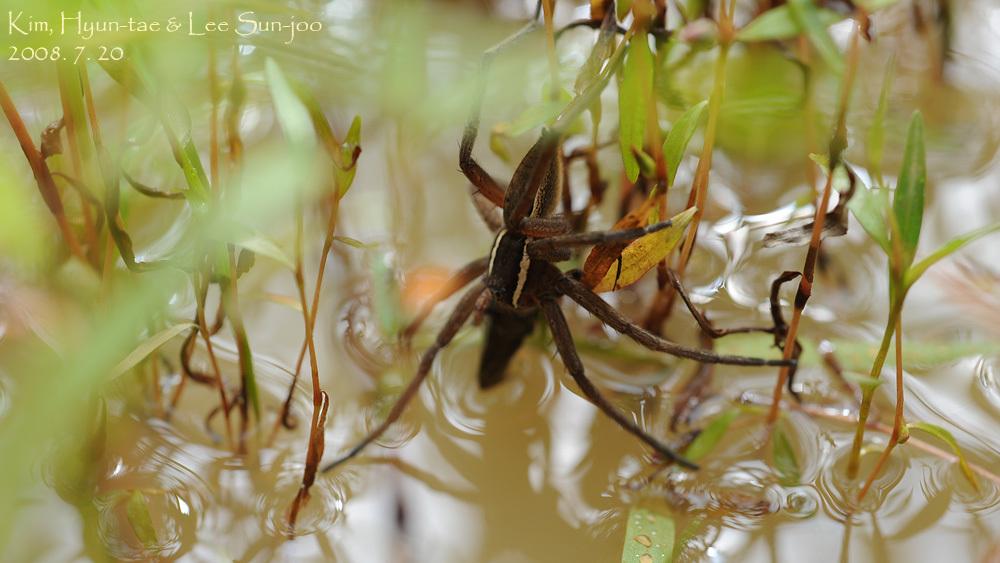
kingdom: Animalia
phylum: Arthropoda
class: Arachnida
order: Araneae
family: Pisauridae
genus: Dolomedes
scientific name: Dolomedes sulfureus
